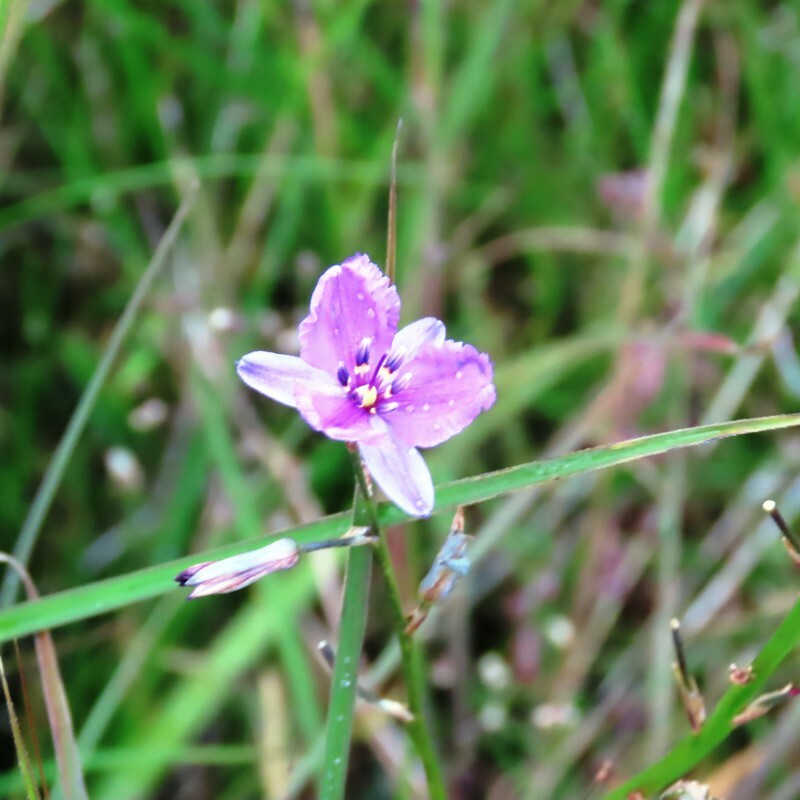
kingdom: Plantae
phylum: Tracheophyta
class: Liliopsida
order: Asparagales
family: Asparagaceae
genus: Arthropodium
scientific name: Arthropodium strictum
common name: Chocolate-lily
